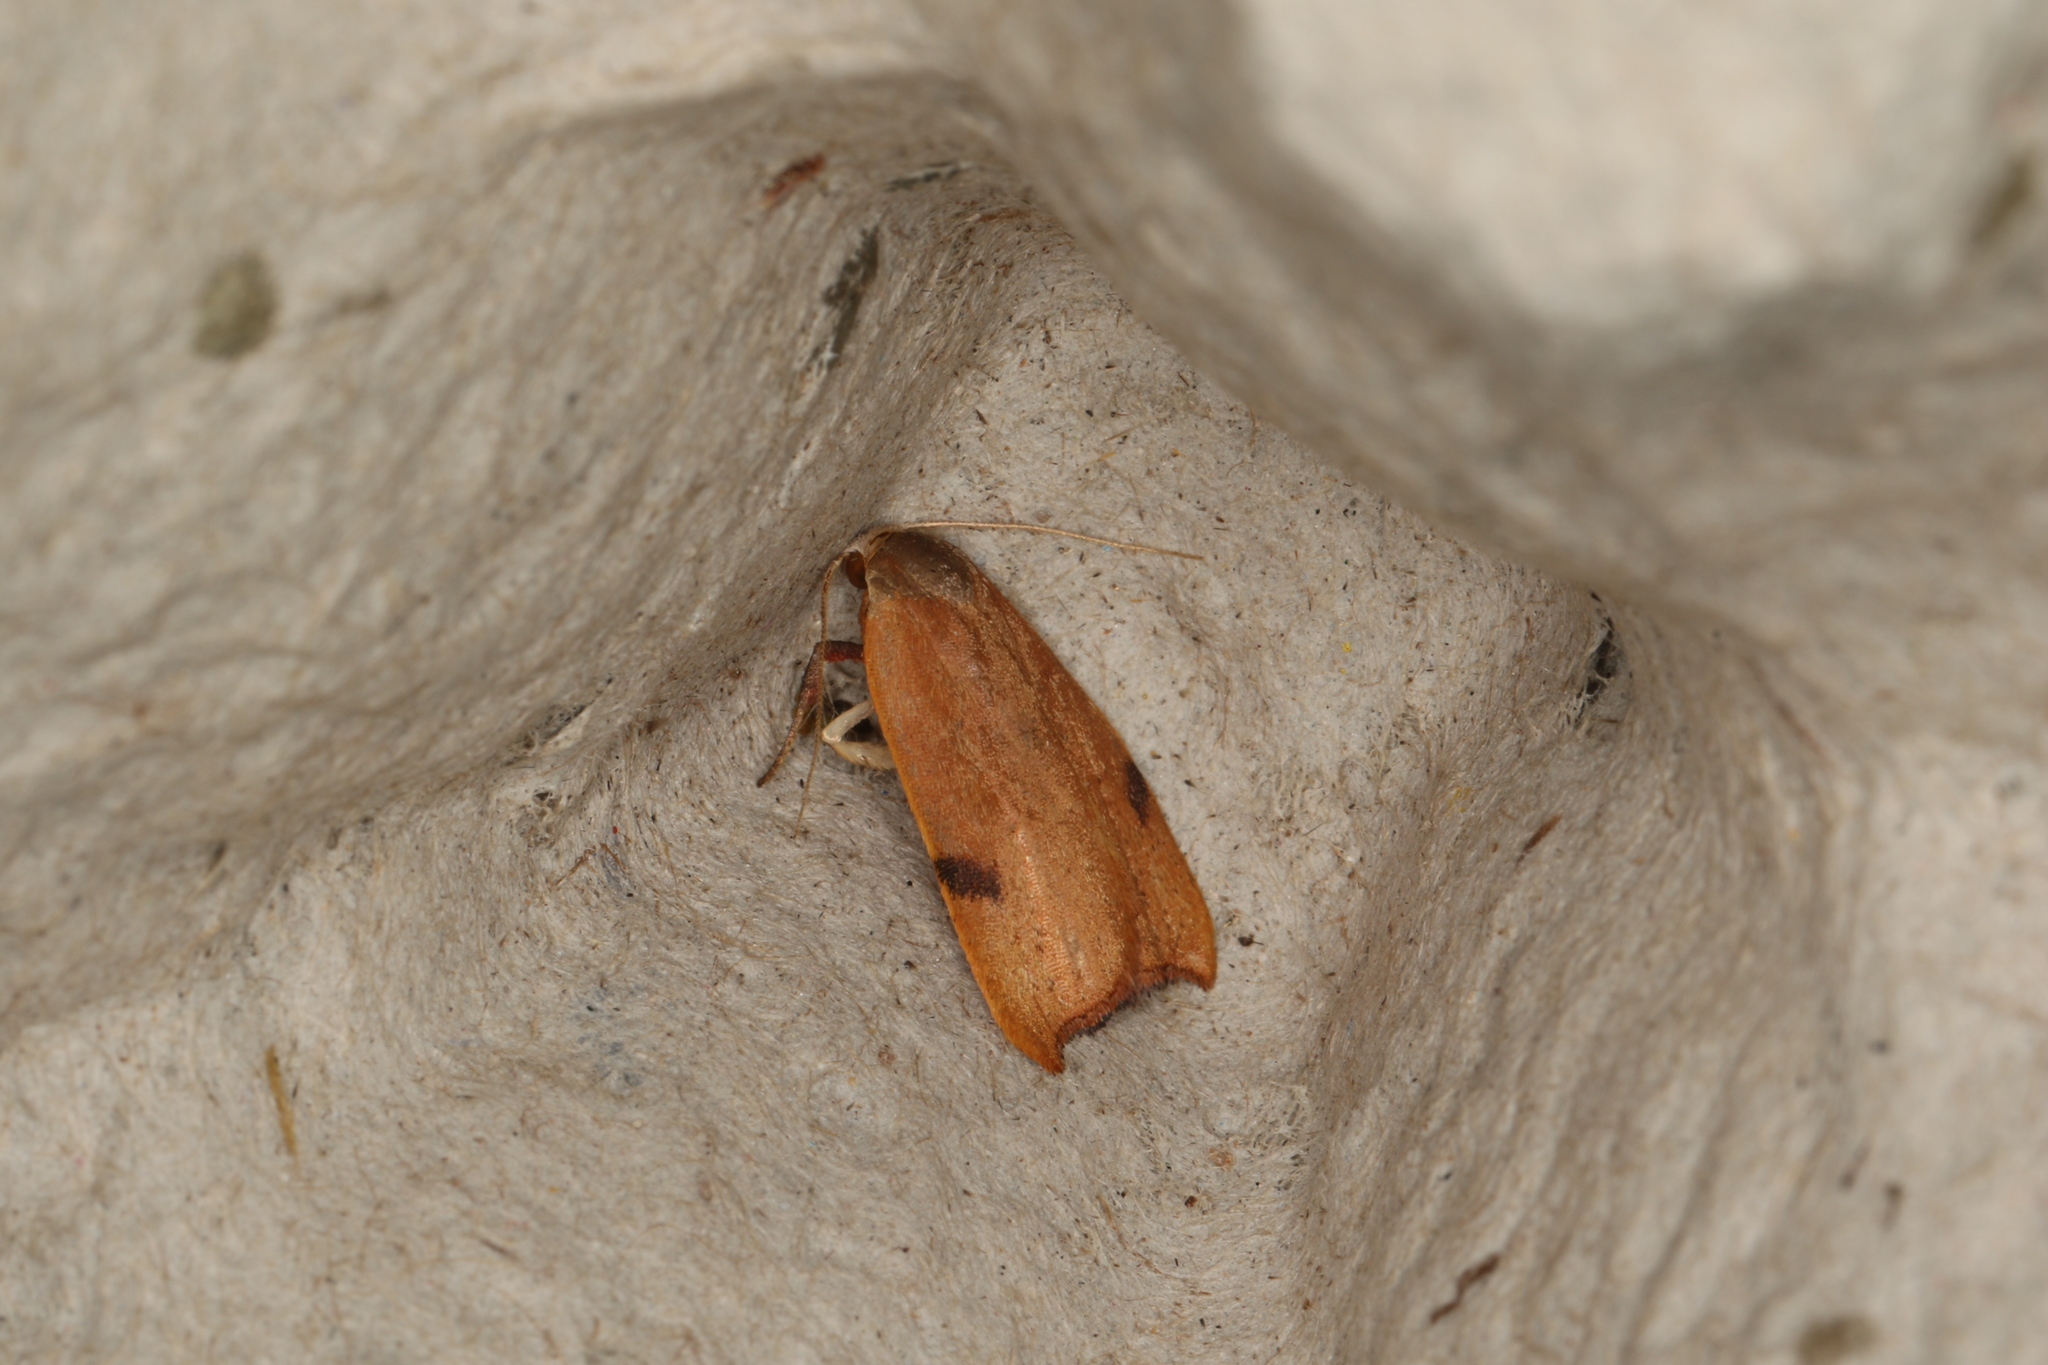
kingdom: Animalia
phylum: Arthropoda
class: Insecta
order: Lepidoptera
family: Oecophoridae
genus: Tortricopsis
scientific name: Tortricopsis uncinella
